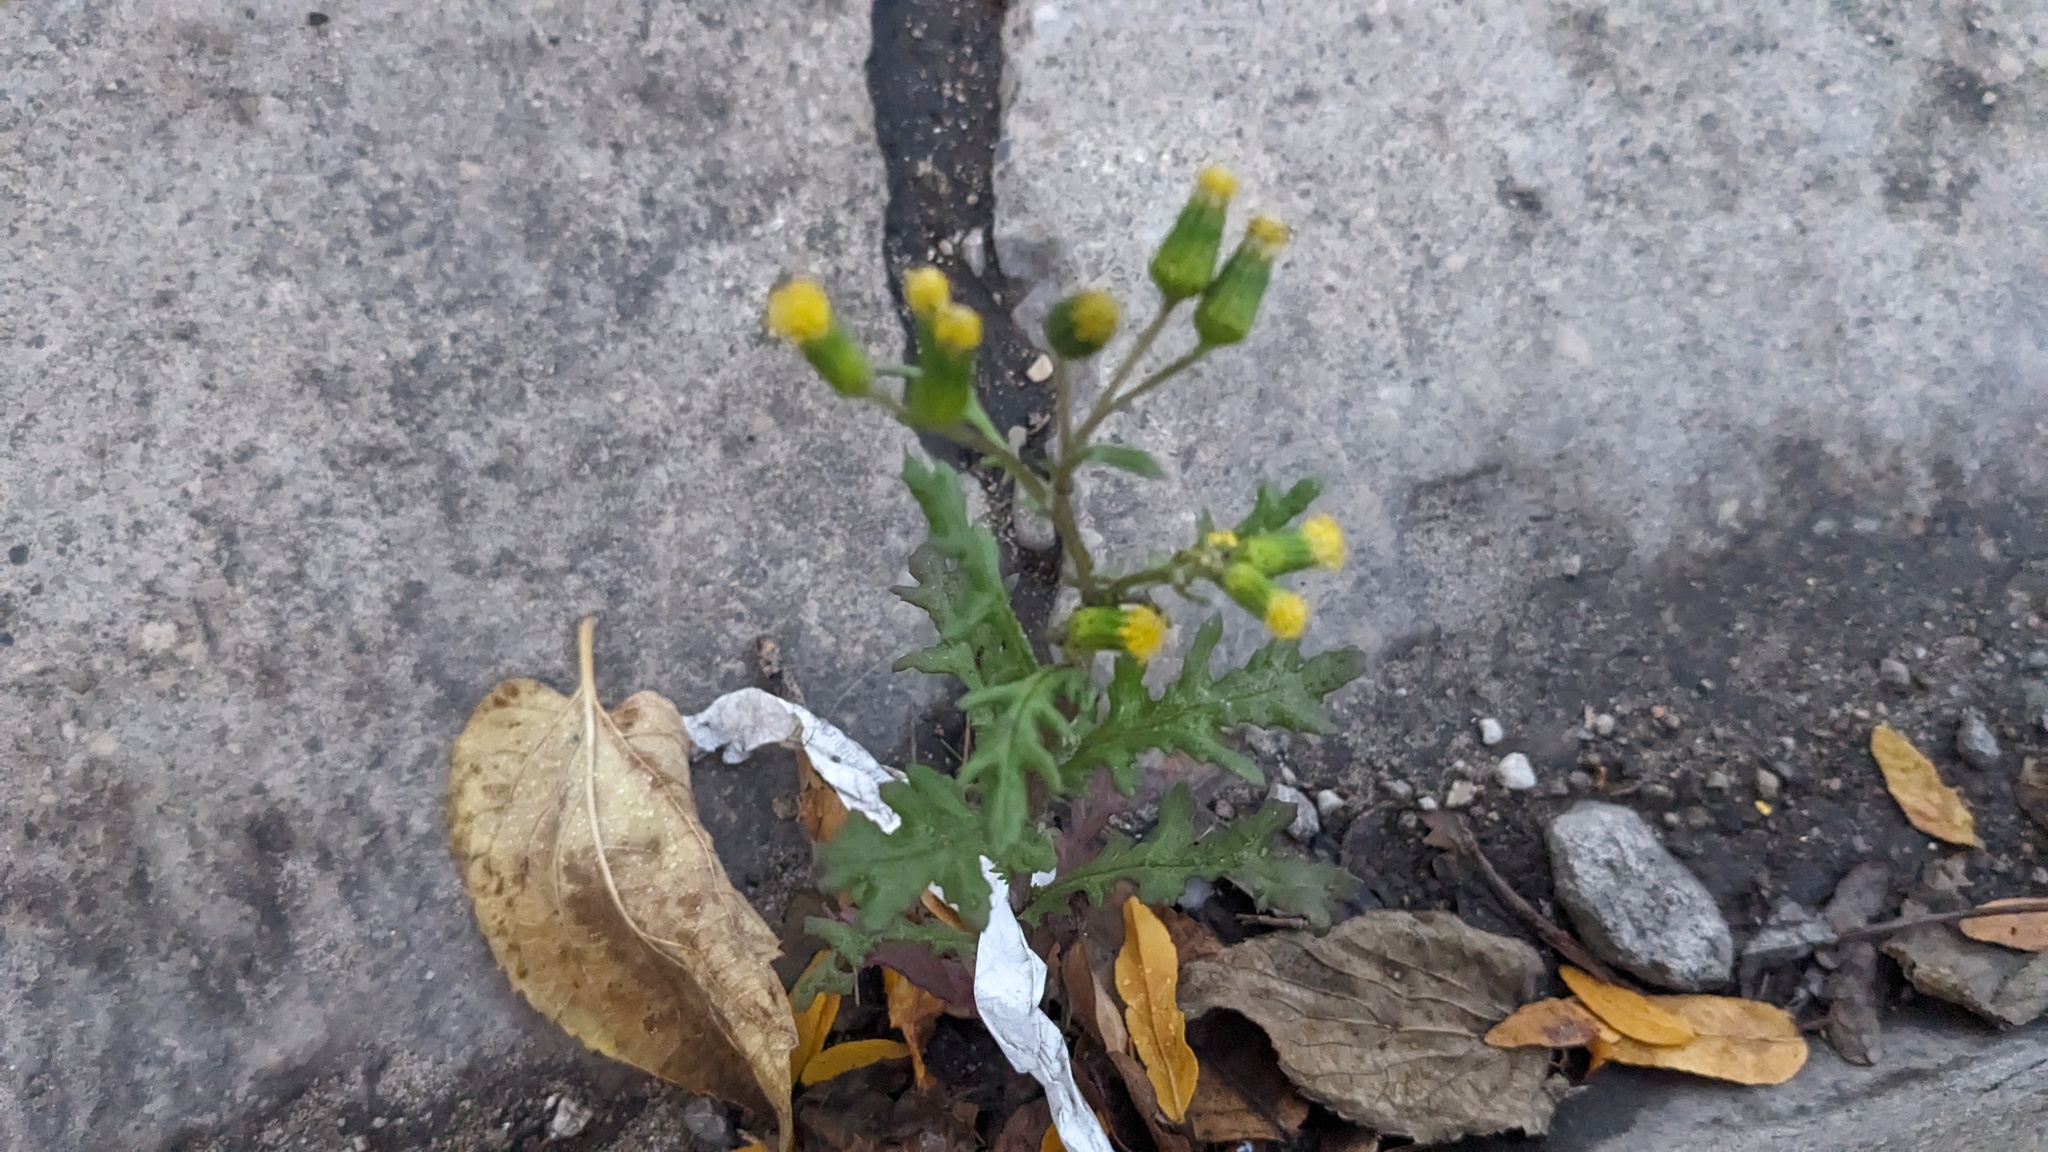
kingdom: Plantae
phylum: Tracheophyta
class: Magnoliopsida
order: Asterales
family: Asteraceae
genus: Senecio
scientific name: Senecio vulgaris
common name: Old-man-in-the-spring
